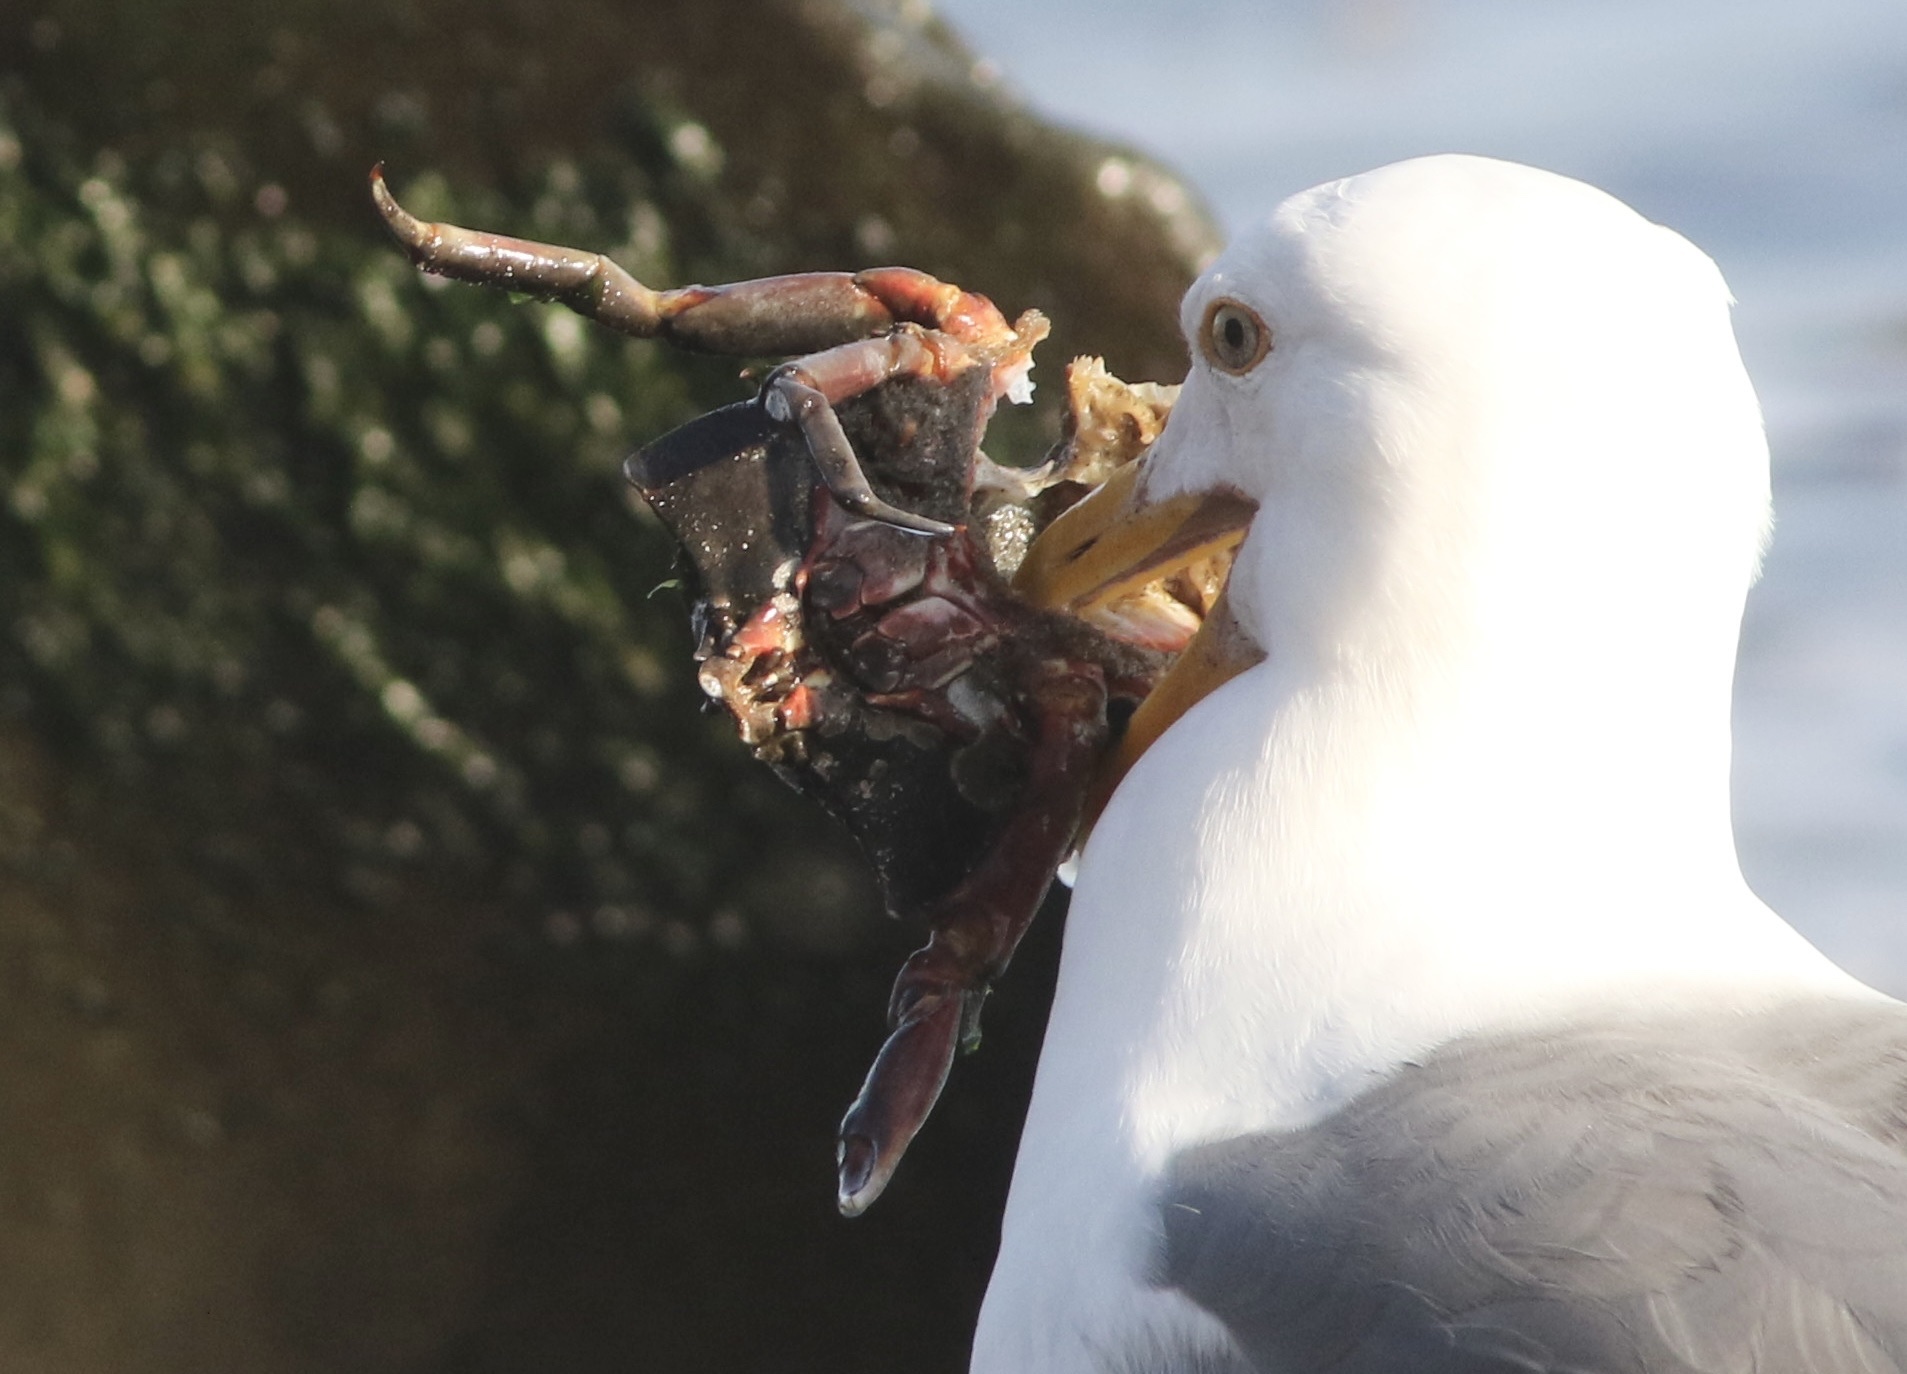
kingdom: Animalia
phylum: Arthropoda
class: Malacostraca
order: Decapoda
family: Epialtidae
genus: Pugettia
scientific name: Pugettia producta
